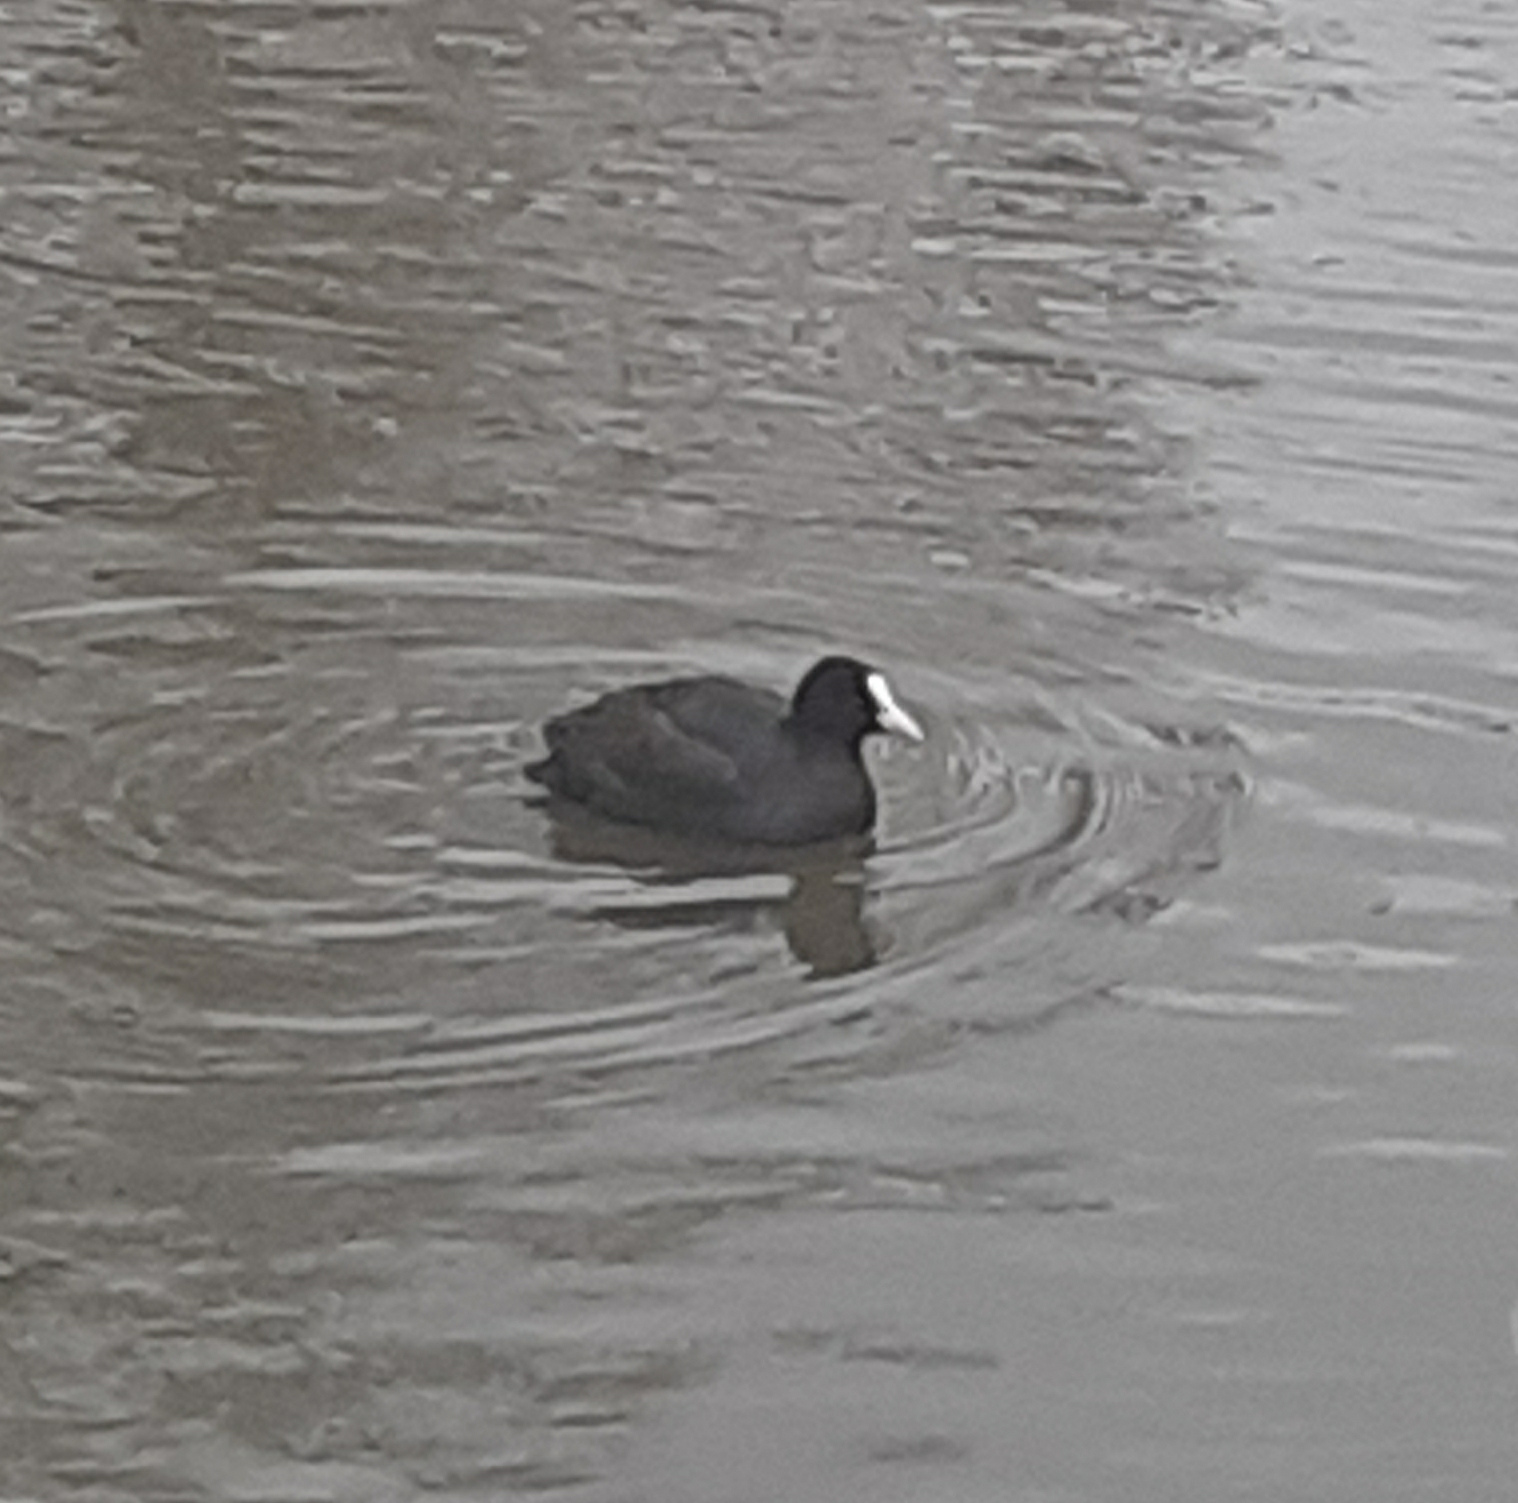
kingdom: Animalia
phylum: Chordata
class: Aves
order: Gruiformes
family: Rallidae
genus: Fulica
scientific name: Fulica atra
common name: Eurasian coot
